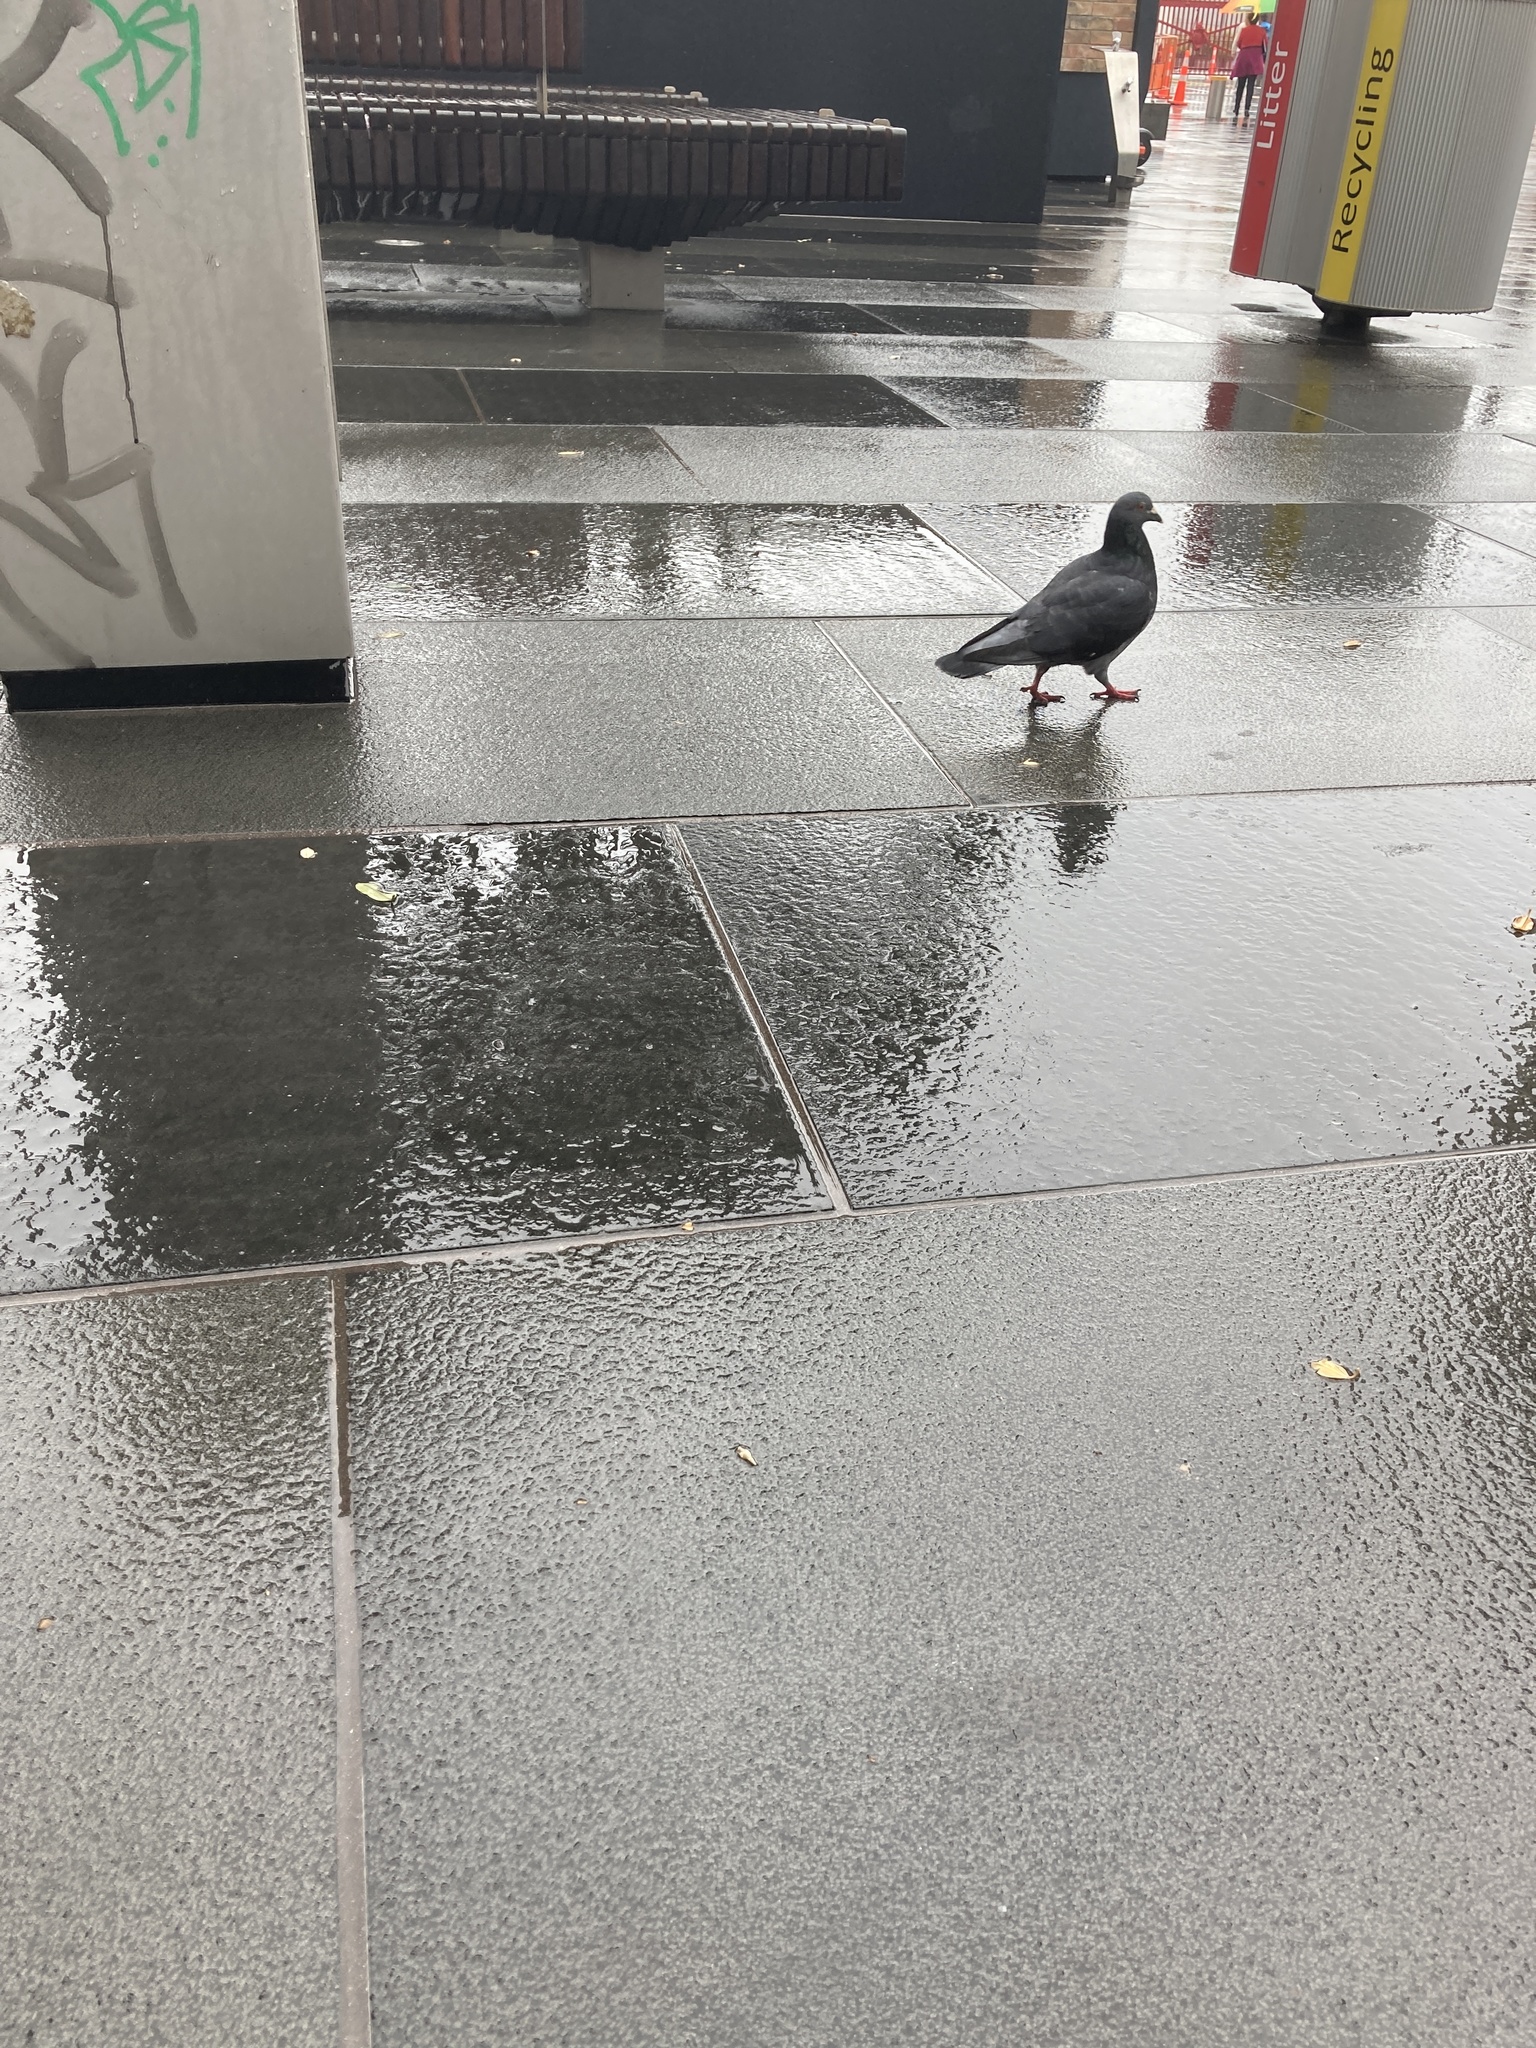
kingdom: Animalia
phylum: Chordata
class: Aves
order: Columbiformes
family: Columbidae
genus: Columba
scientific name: Columba livia
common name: Rock pigeon
